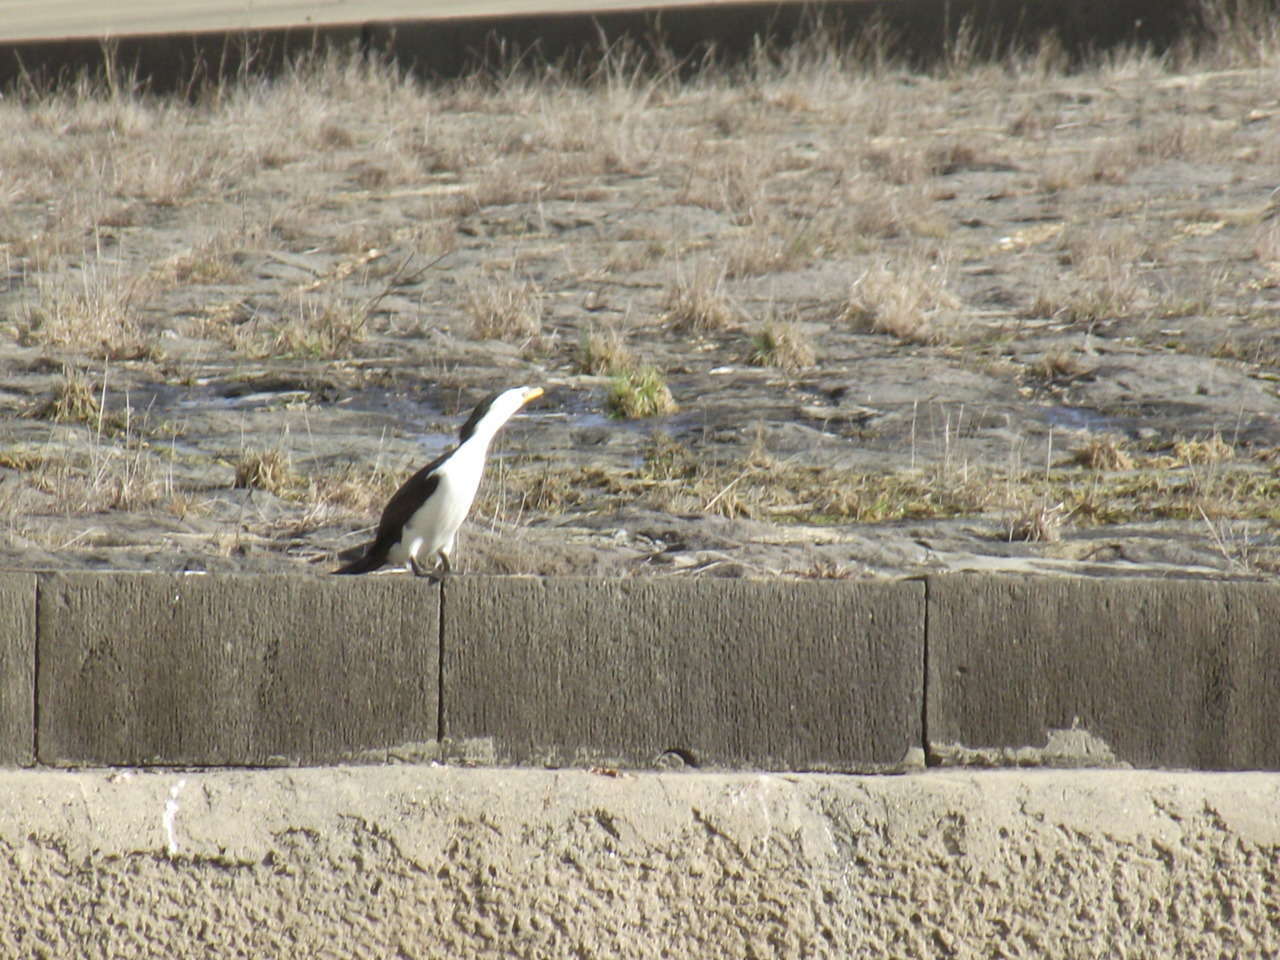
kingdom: Animalia
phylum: Chordata
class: Aves
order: Suliformes
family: Phalacrocoracidae
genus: Microcarbo
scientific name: Microcarbo melanoleucos
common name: Little pied cormorant
